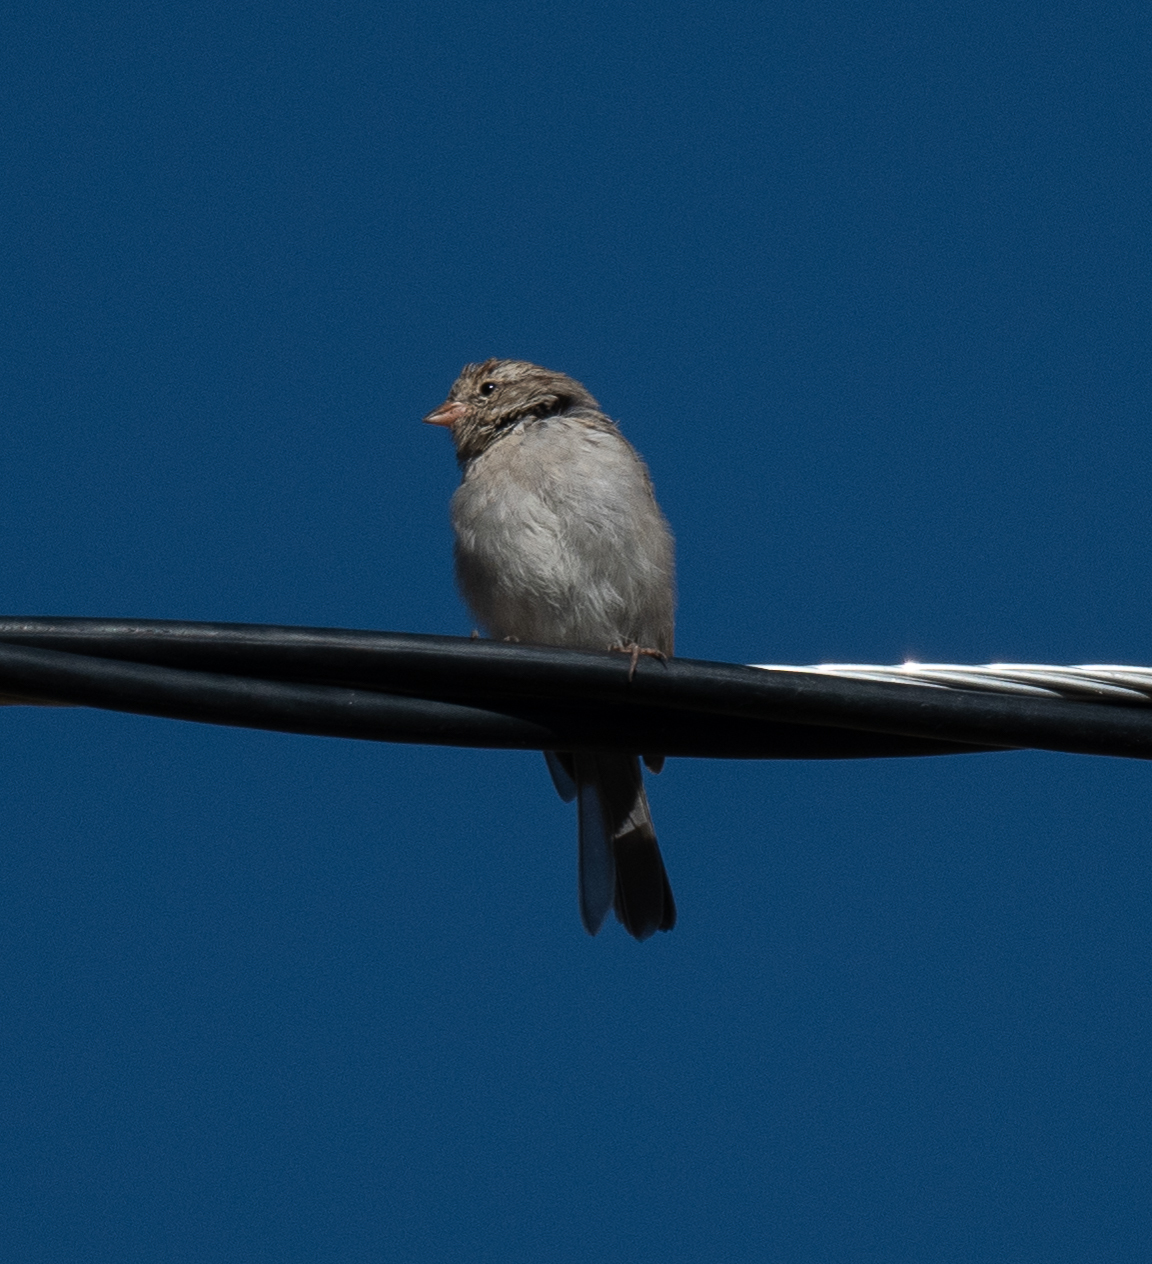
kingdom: Animalia
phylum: Chordata
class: Aves
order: Passeriformes
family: Passerellidae
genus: Spizella
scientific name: Spizella passerina
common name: Chipping sparrow
